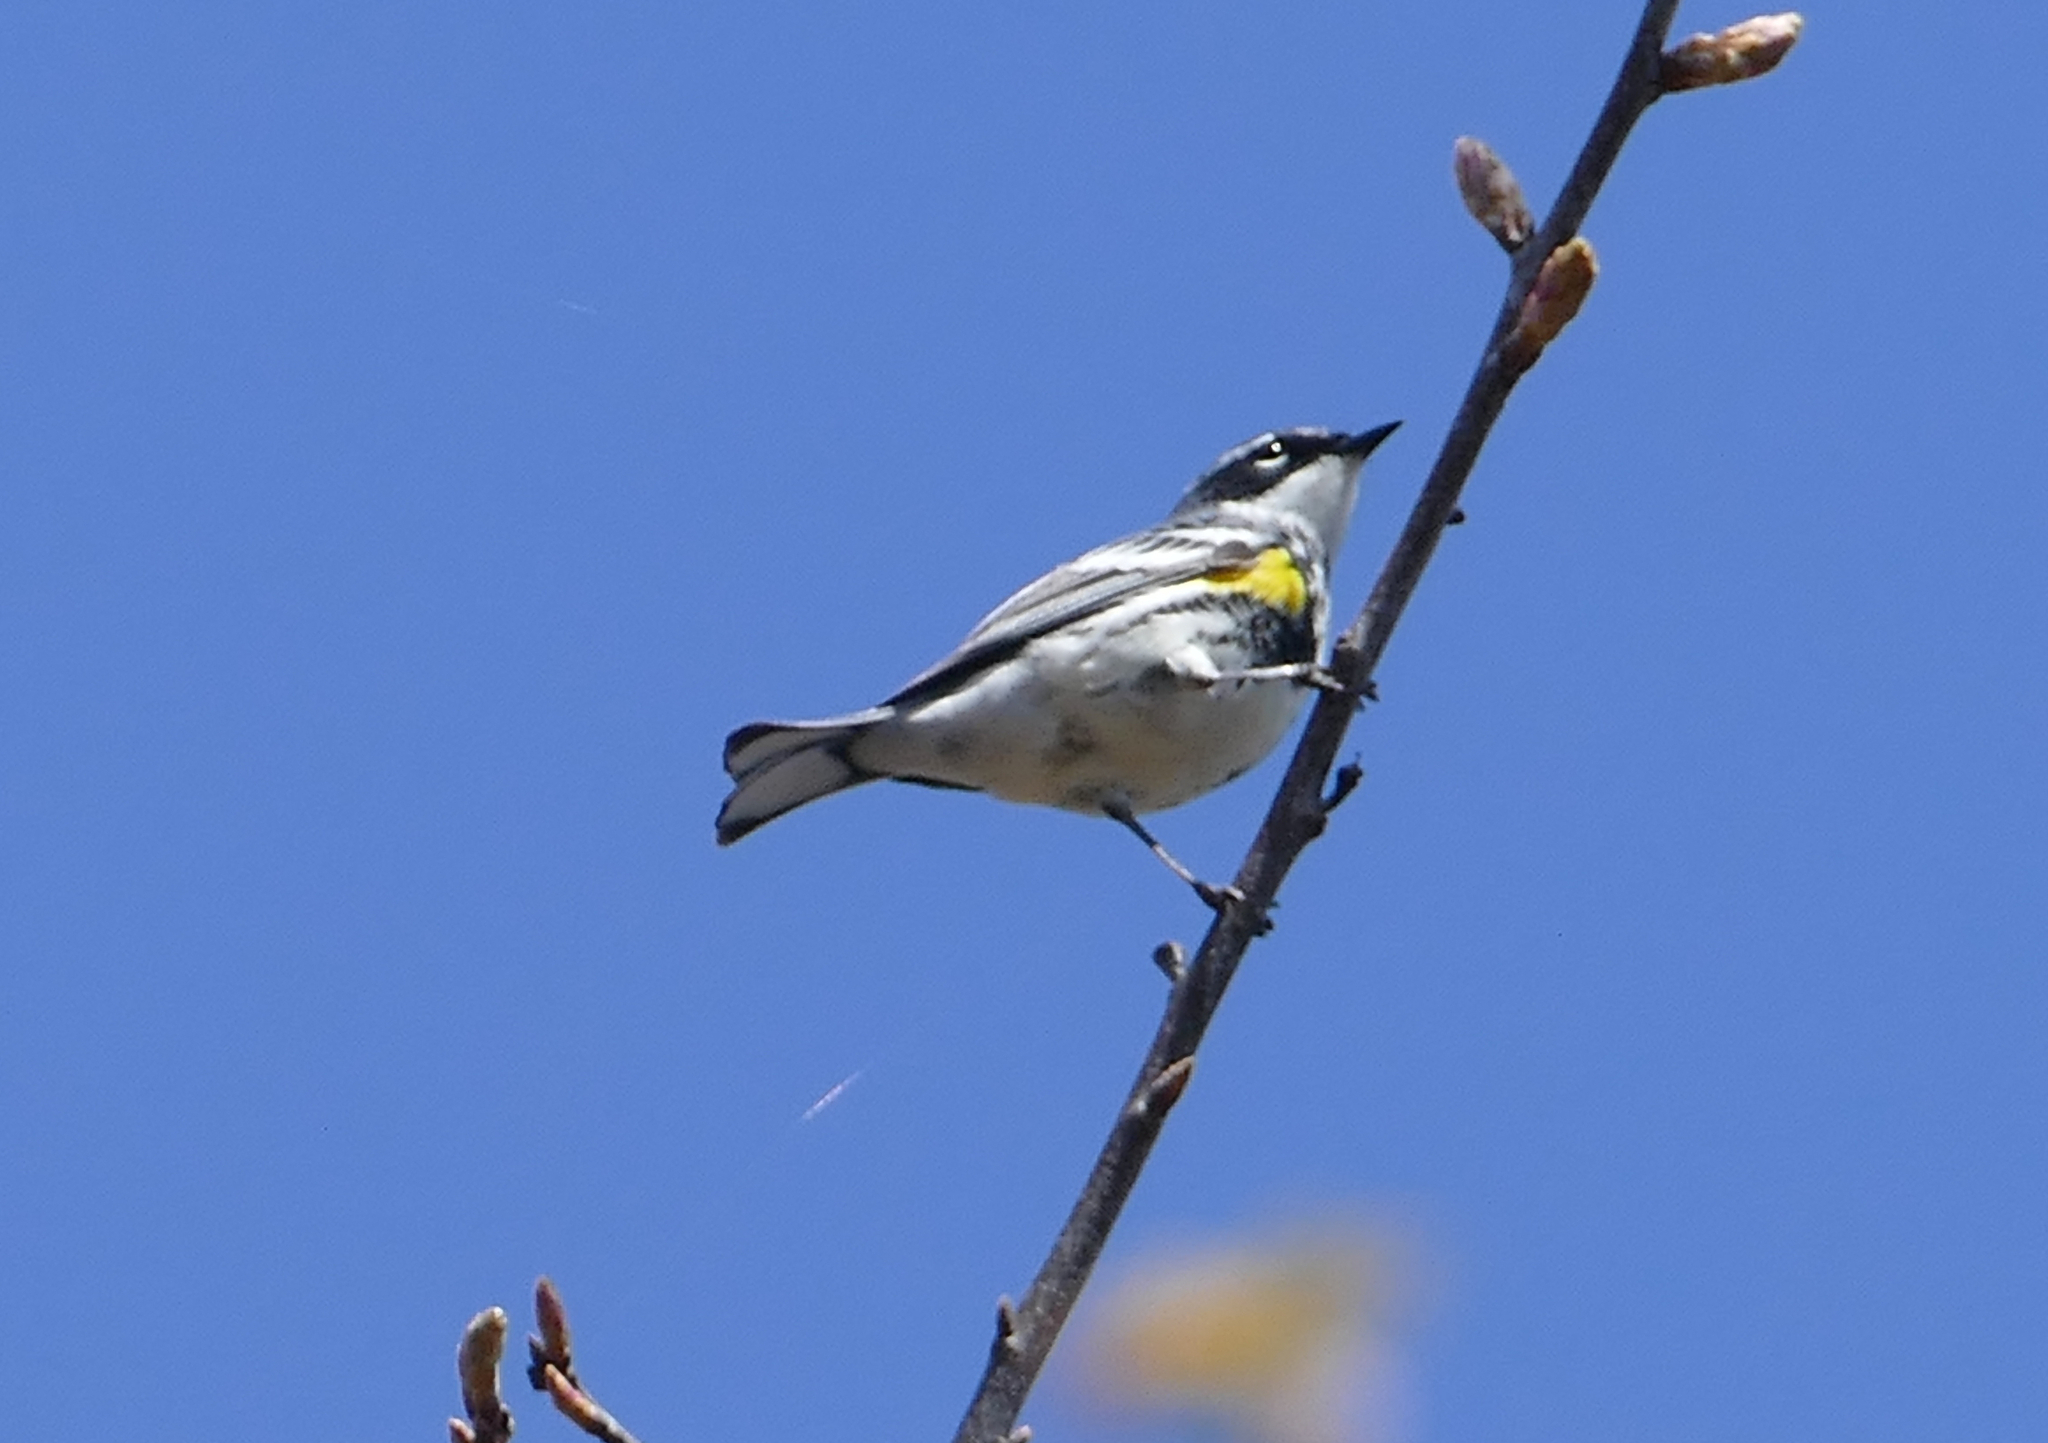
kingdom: Animalia
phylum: Chordata
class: Aves
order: Passeriformes
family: Parulidae
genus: Setophaga
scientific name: Setophaga coronata
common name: Myrtle warbler
